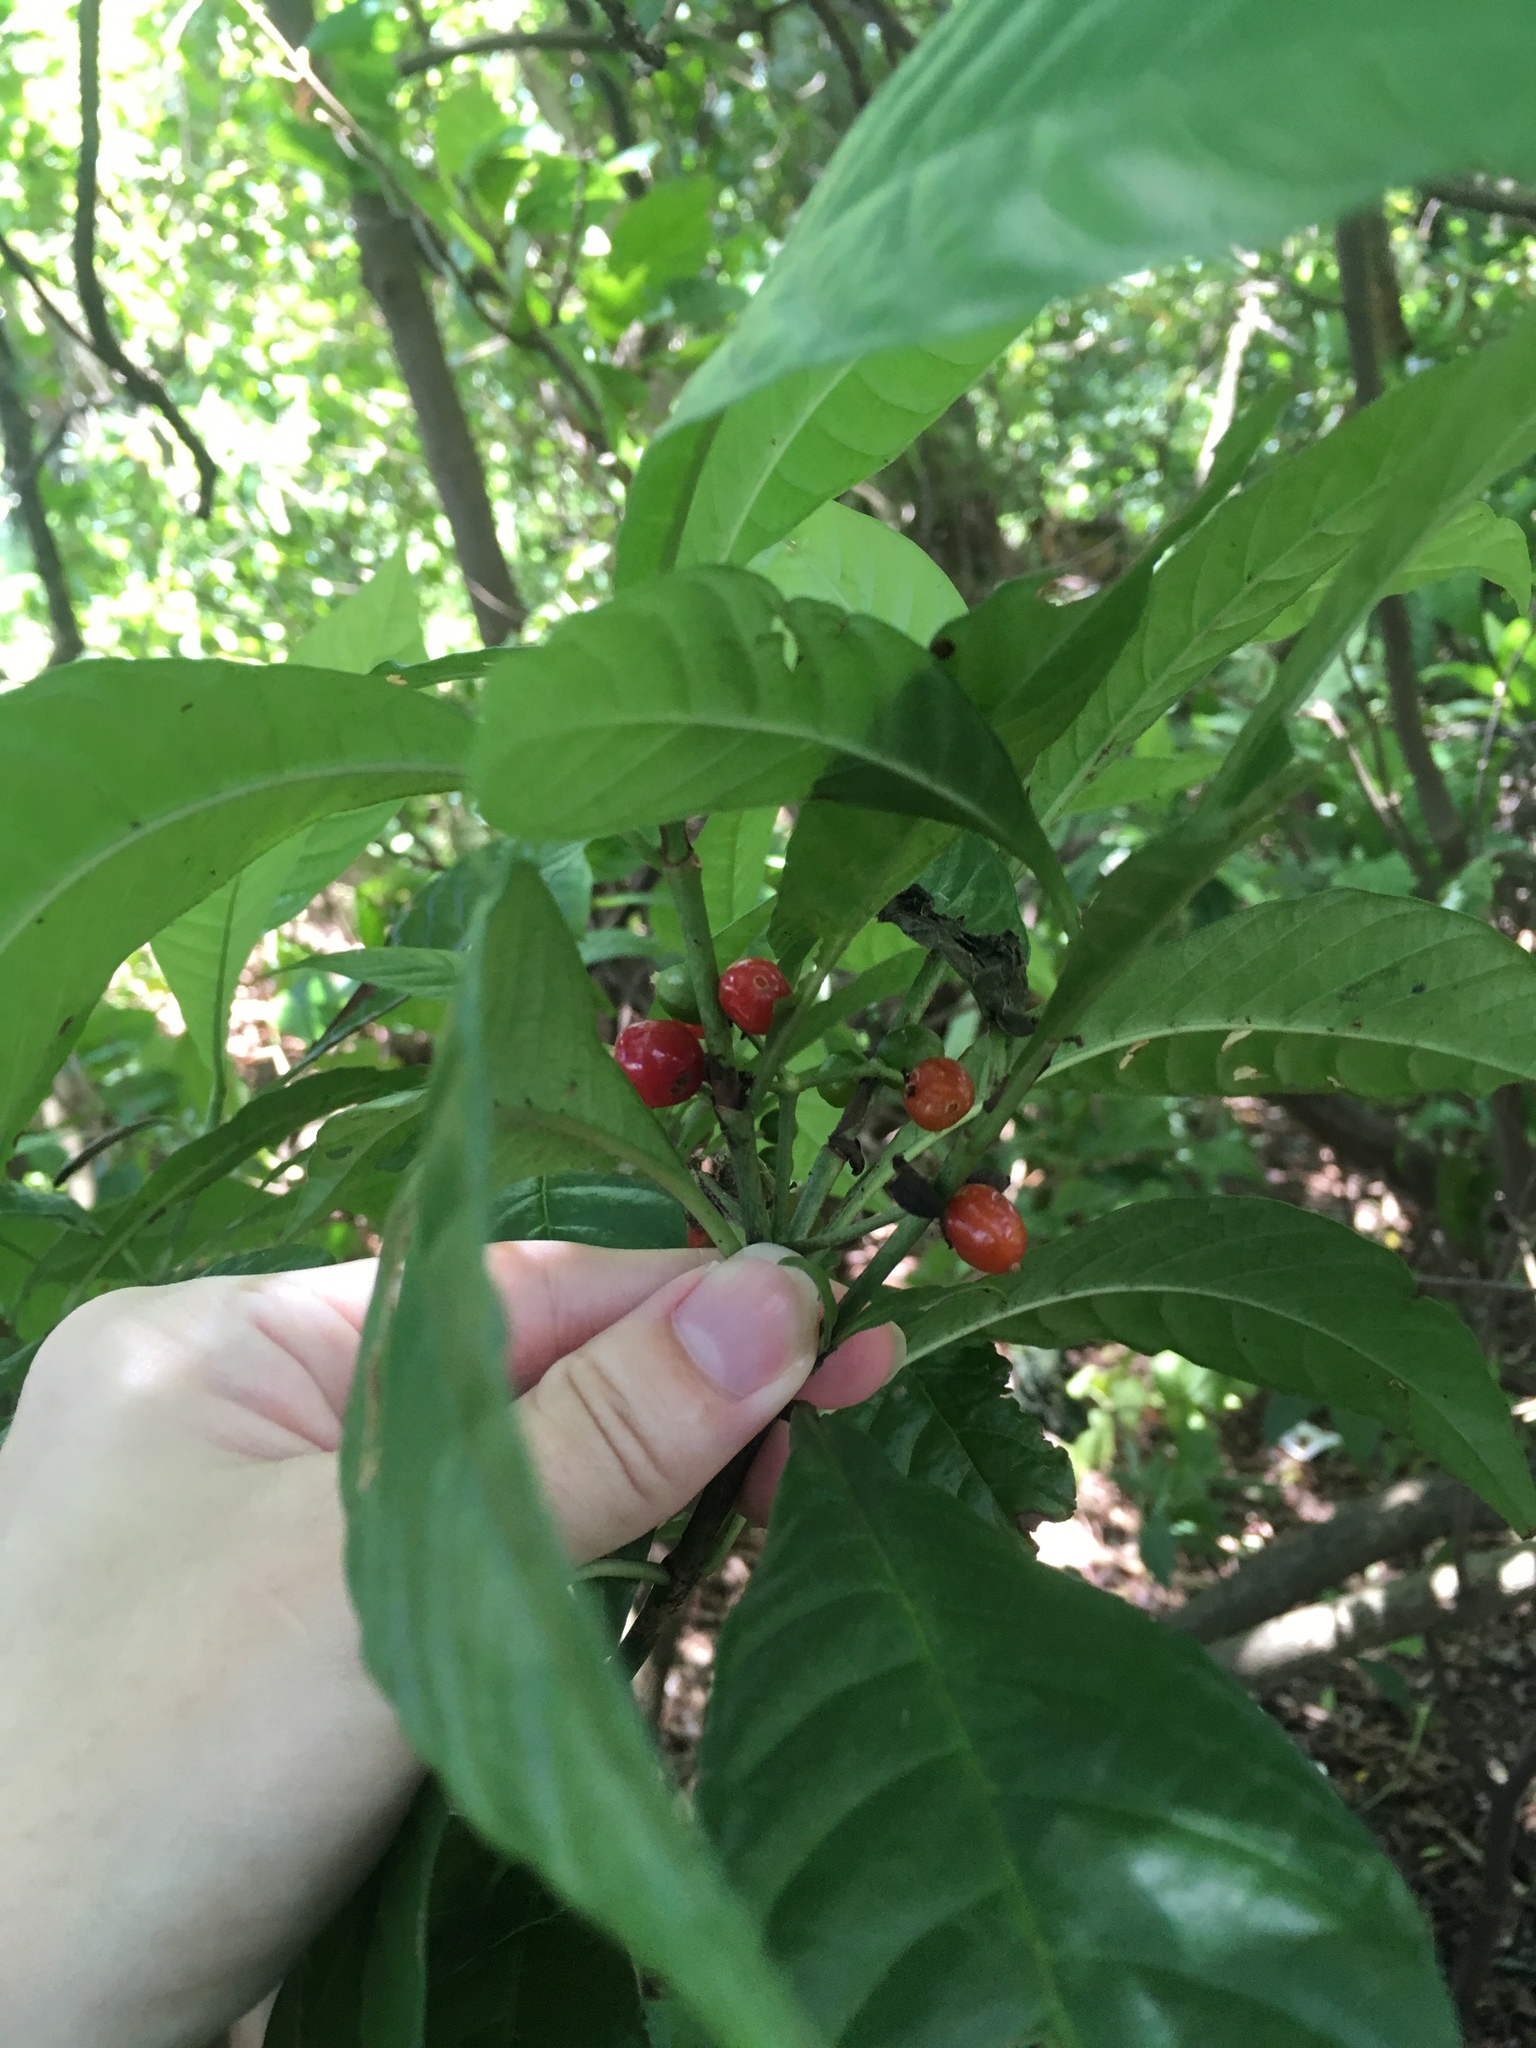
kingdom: Plantae
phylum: Tracheophyta
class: Magnoliopsida
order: Gentianales
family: Rubiaceae
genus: Psychotria
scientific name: Psychotria nervosa
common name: Bastard cankerberry
